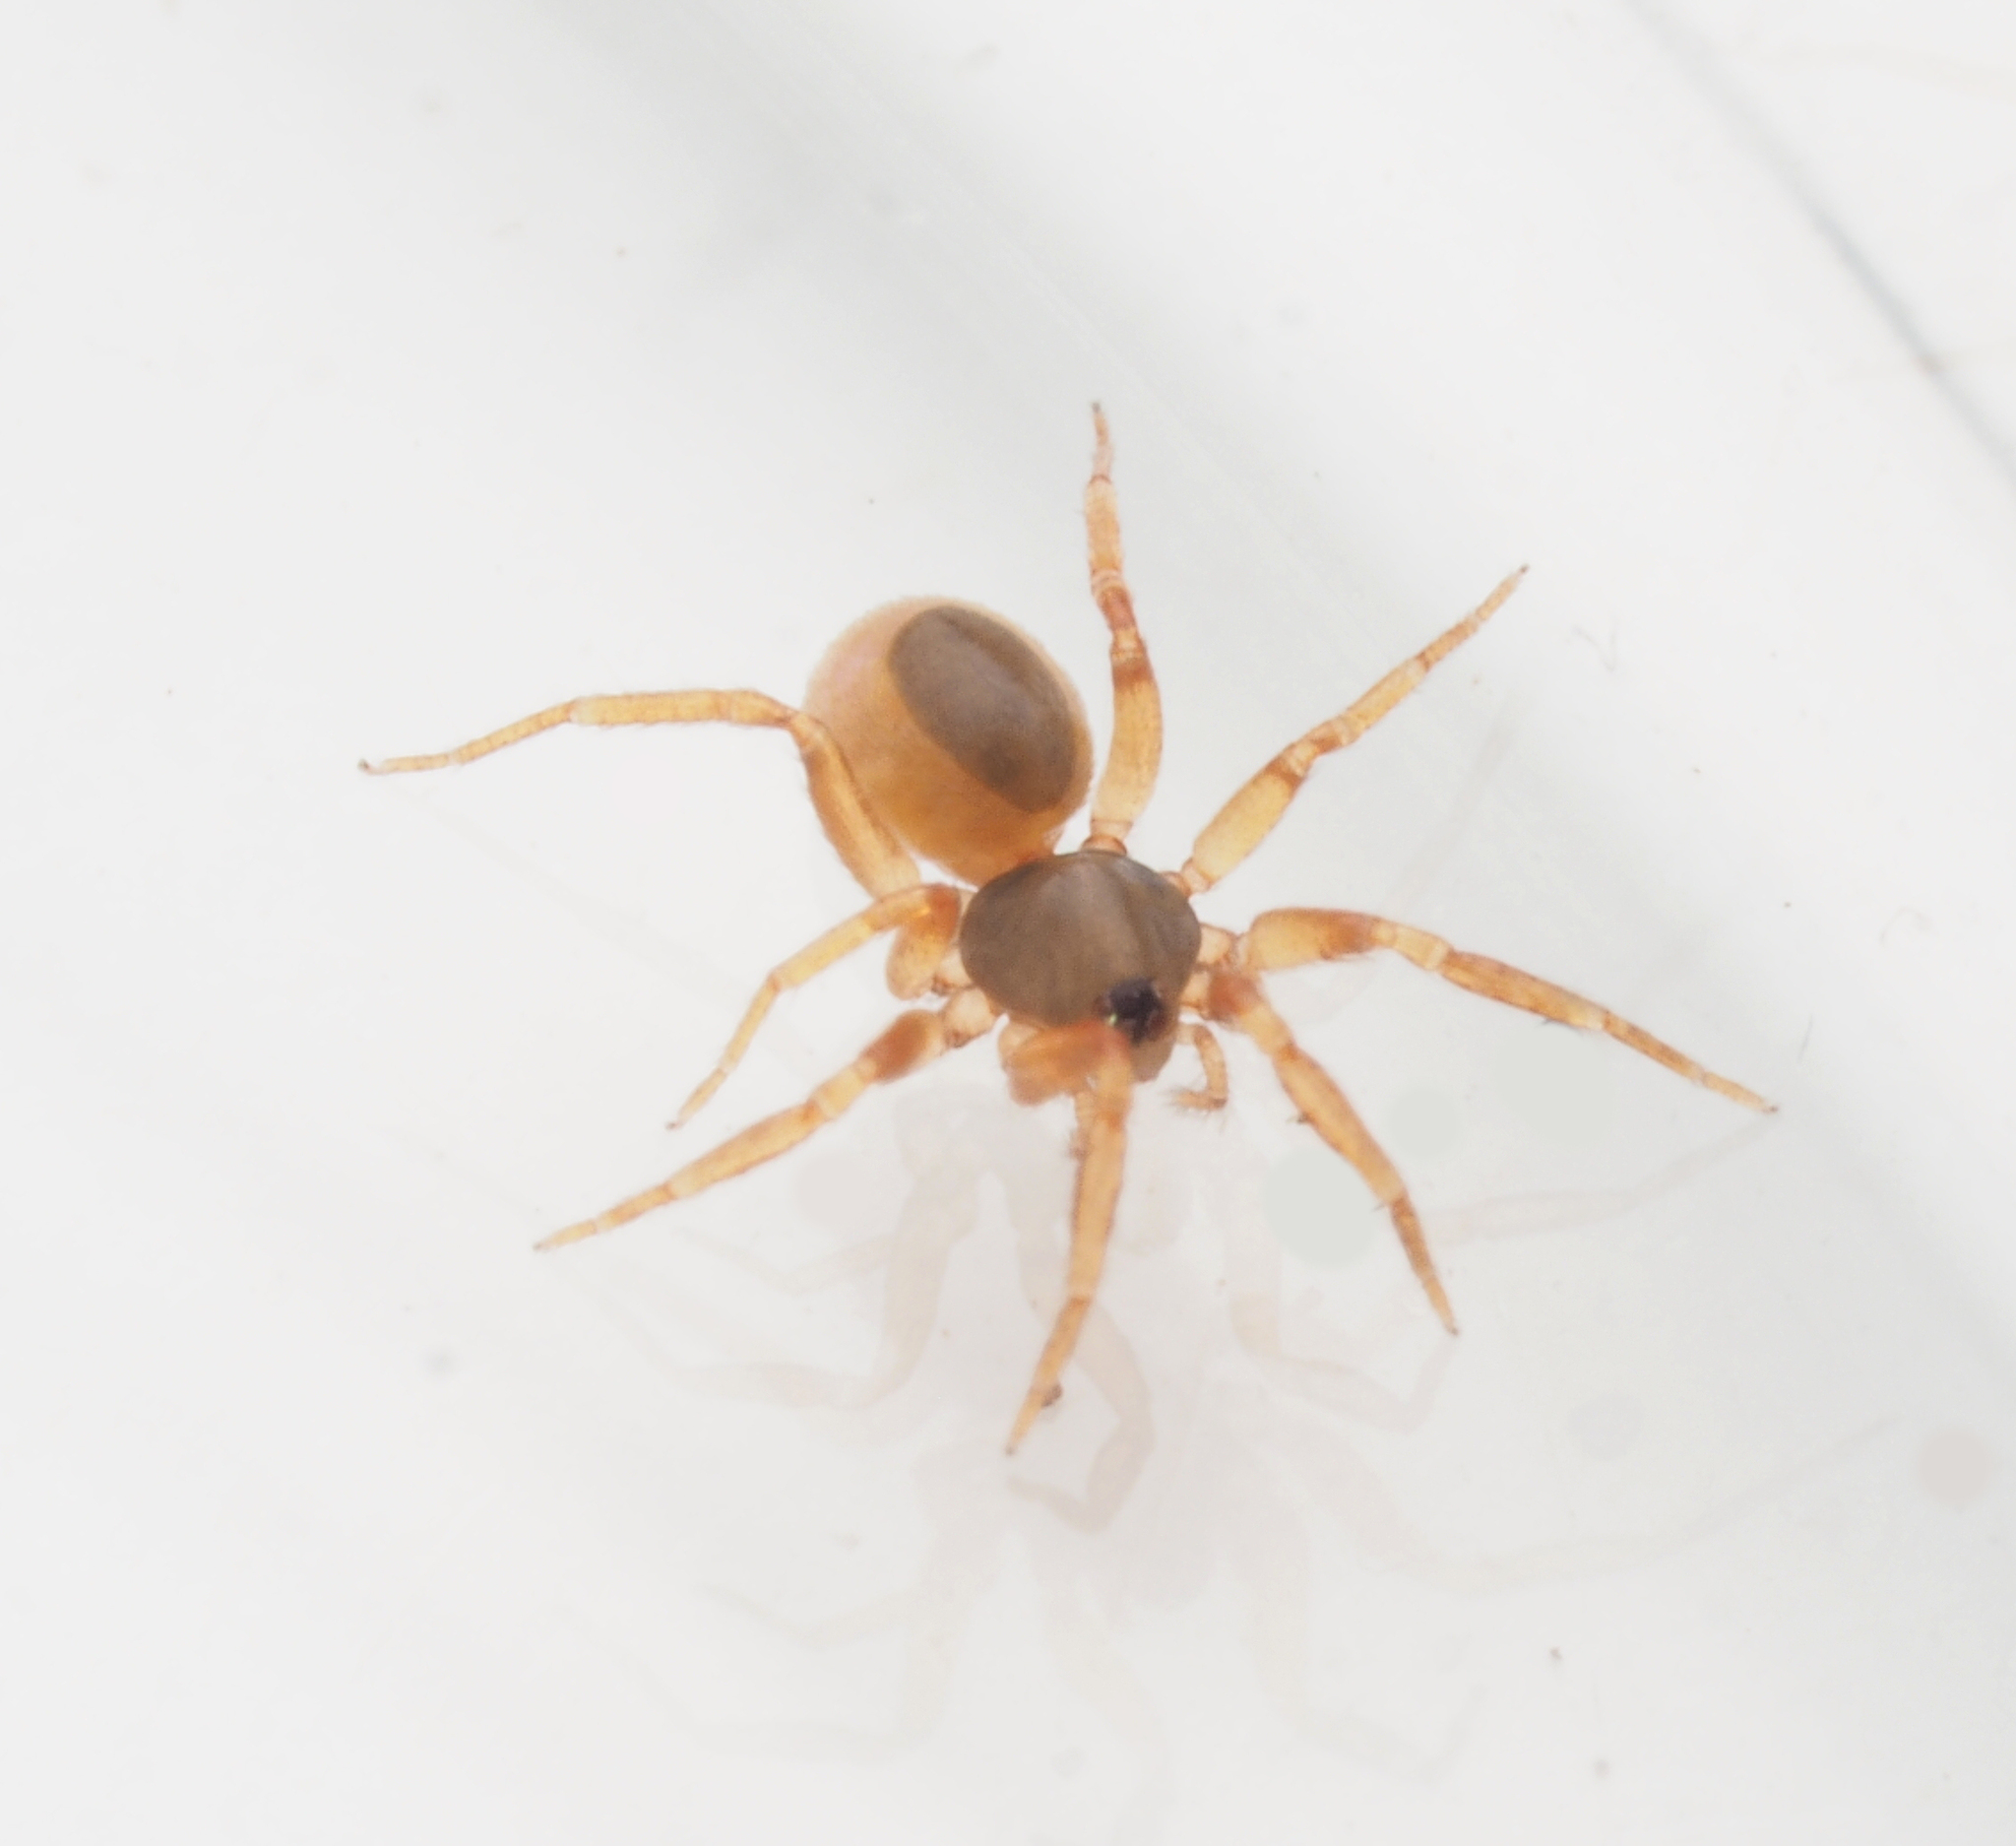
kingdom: Animalia
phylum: Arthropoda
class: Arachnida
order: Araneae
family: Oonopidae
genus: Ischnothyreus
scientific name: Ischnothyreus hamatus
